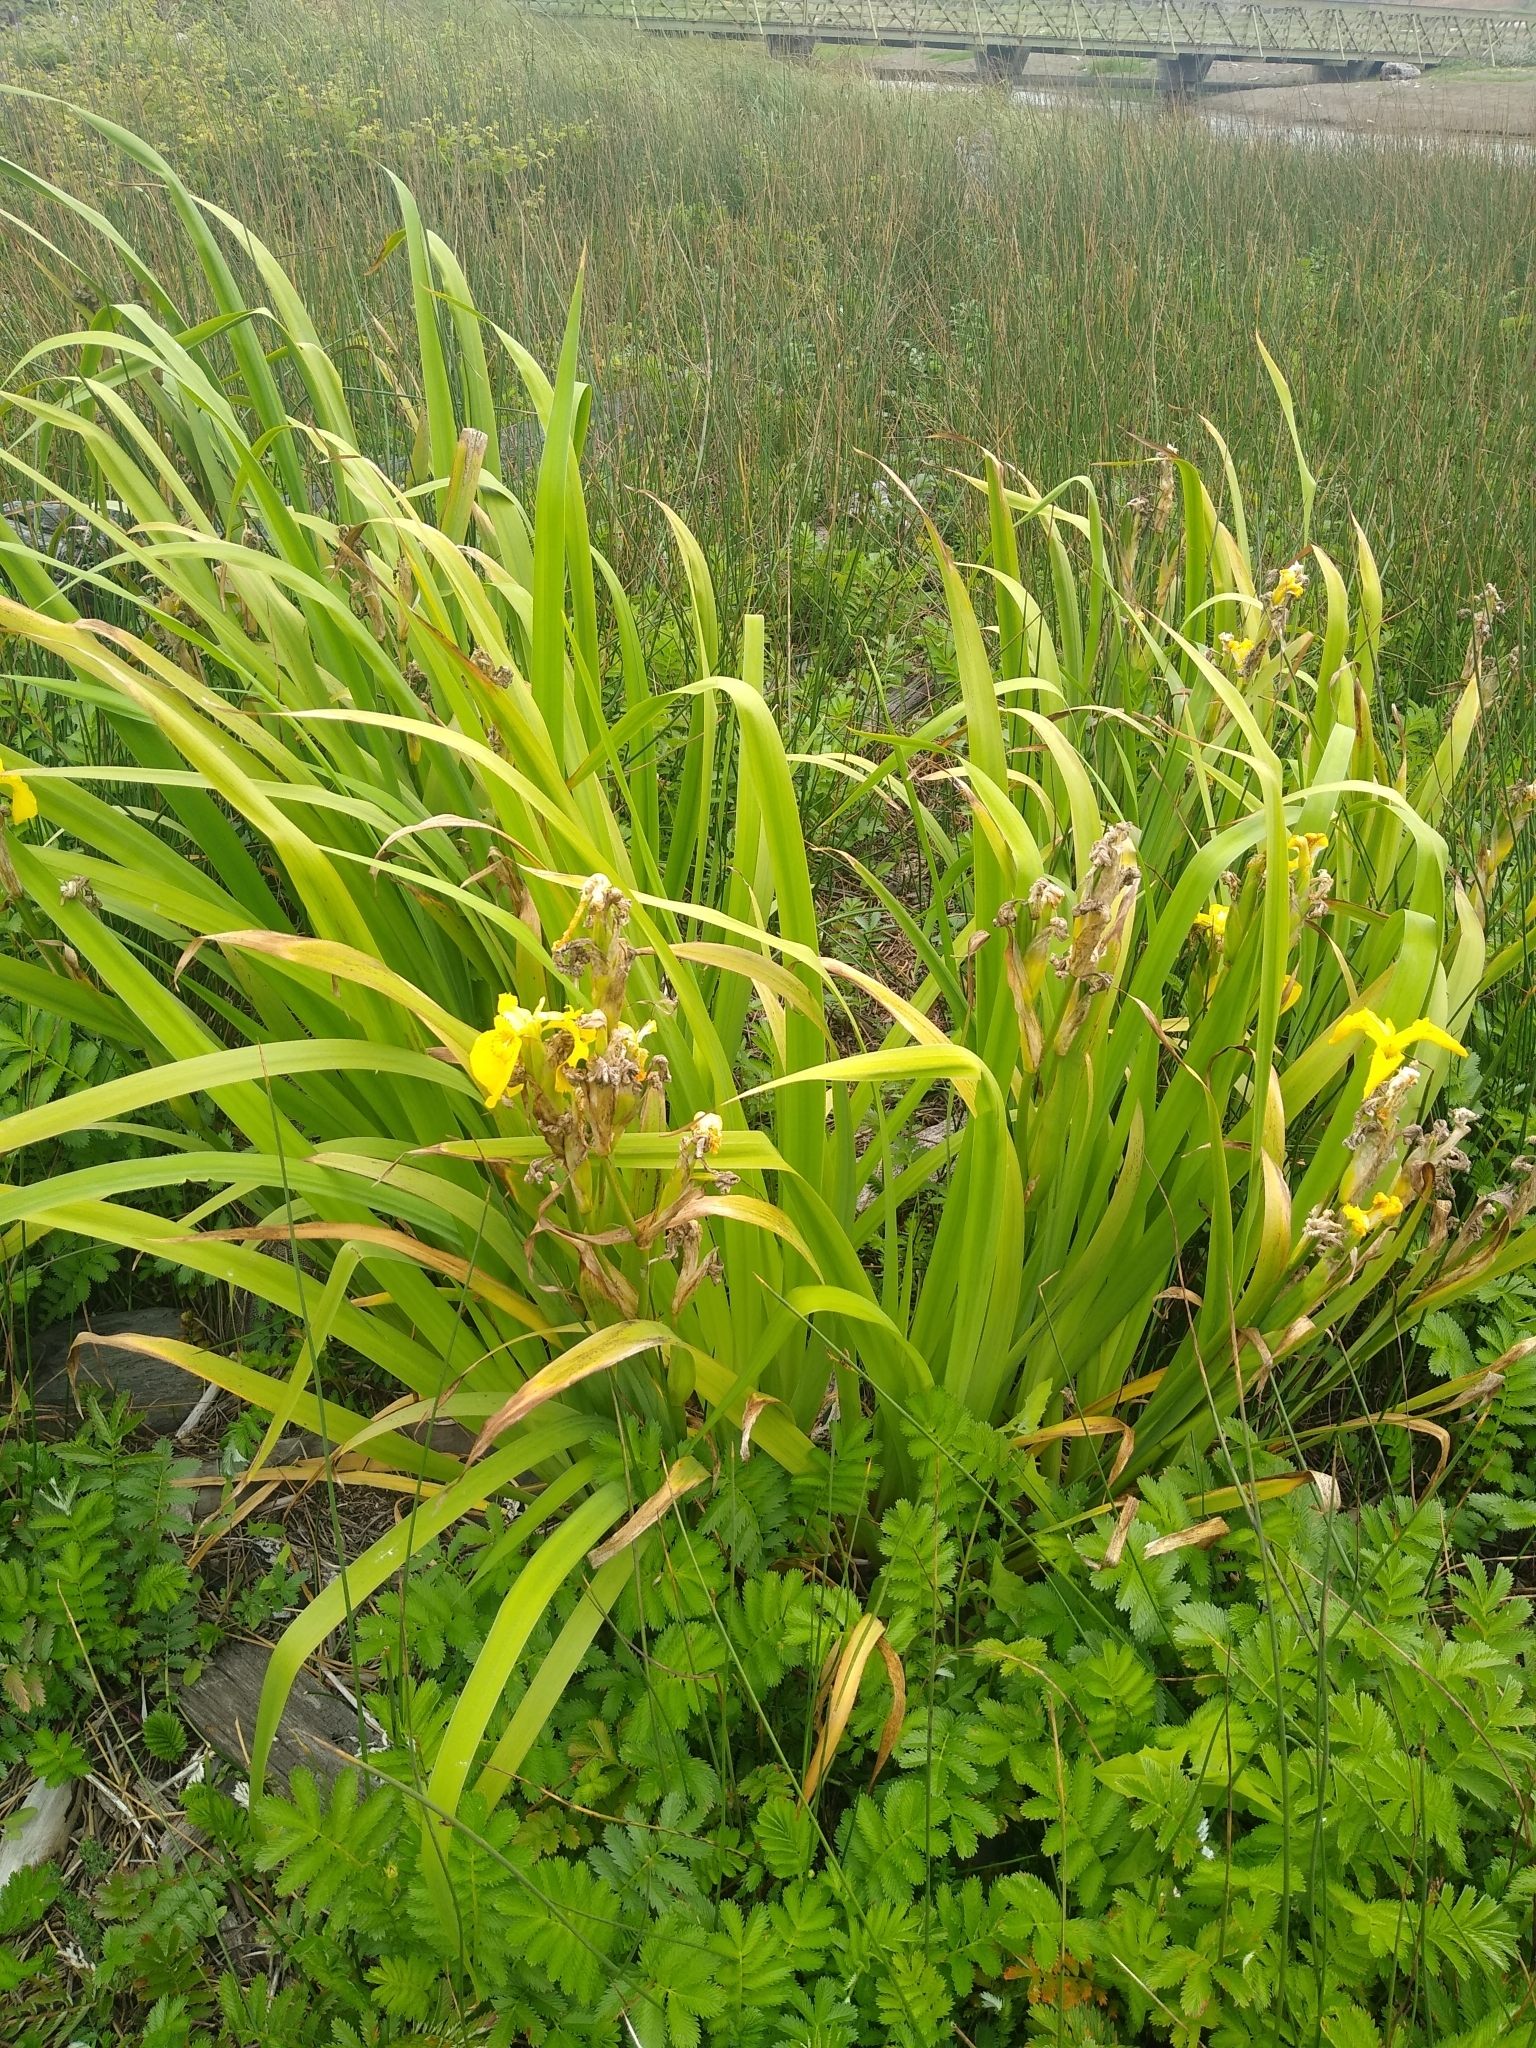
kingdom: Plantae
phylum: Tracheophyta
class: Liliopsida
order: Asparagales
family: Iridaceae
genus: Iris
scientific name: Iris pseudacorus
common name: Yellow flag
